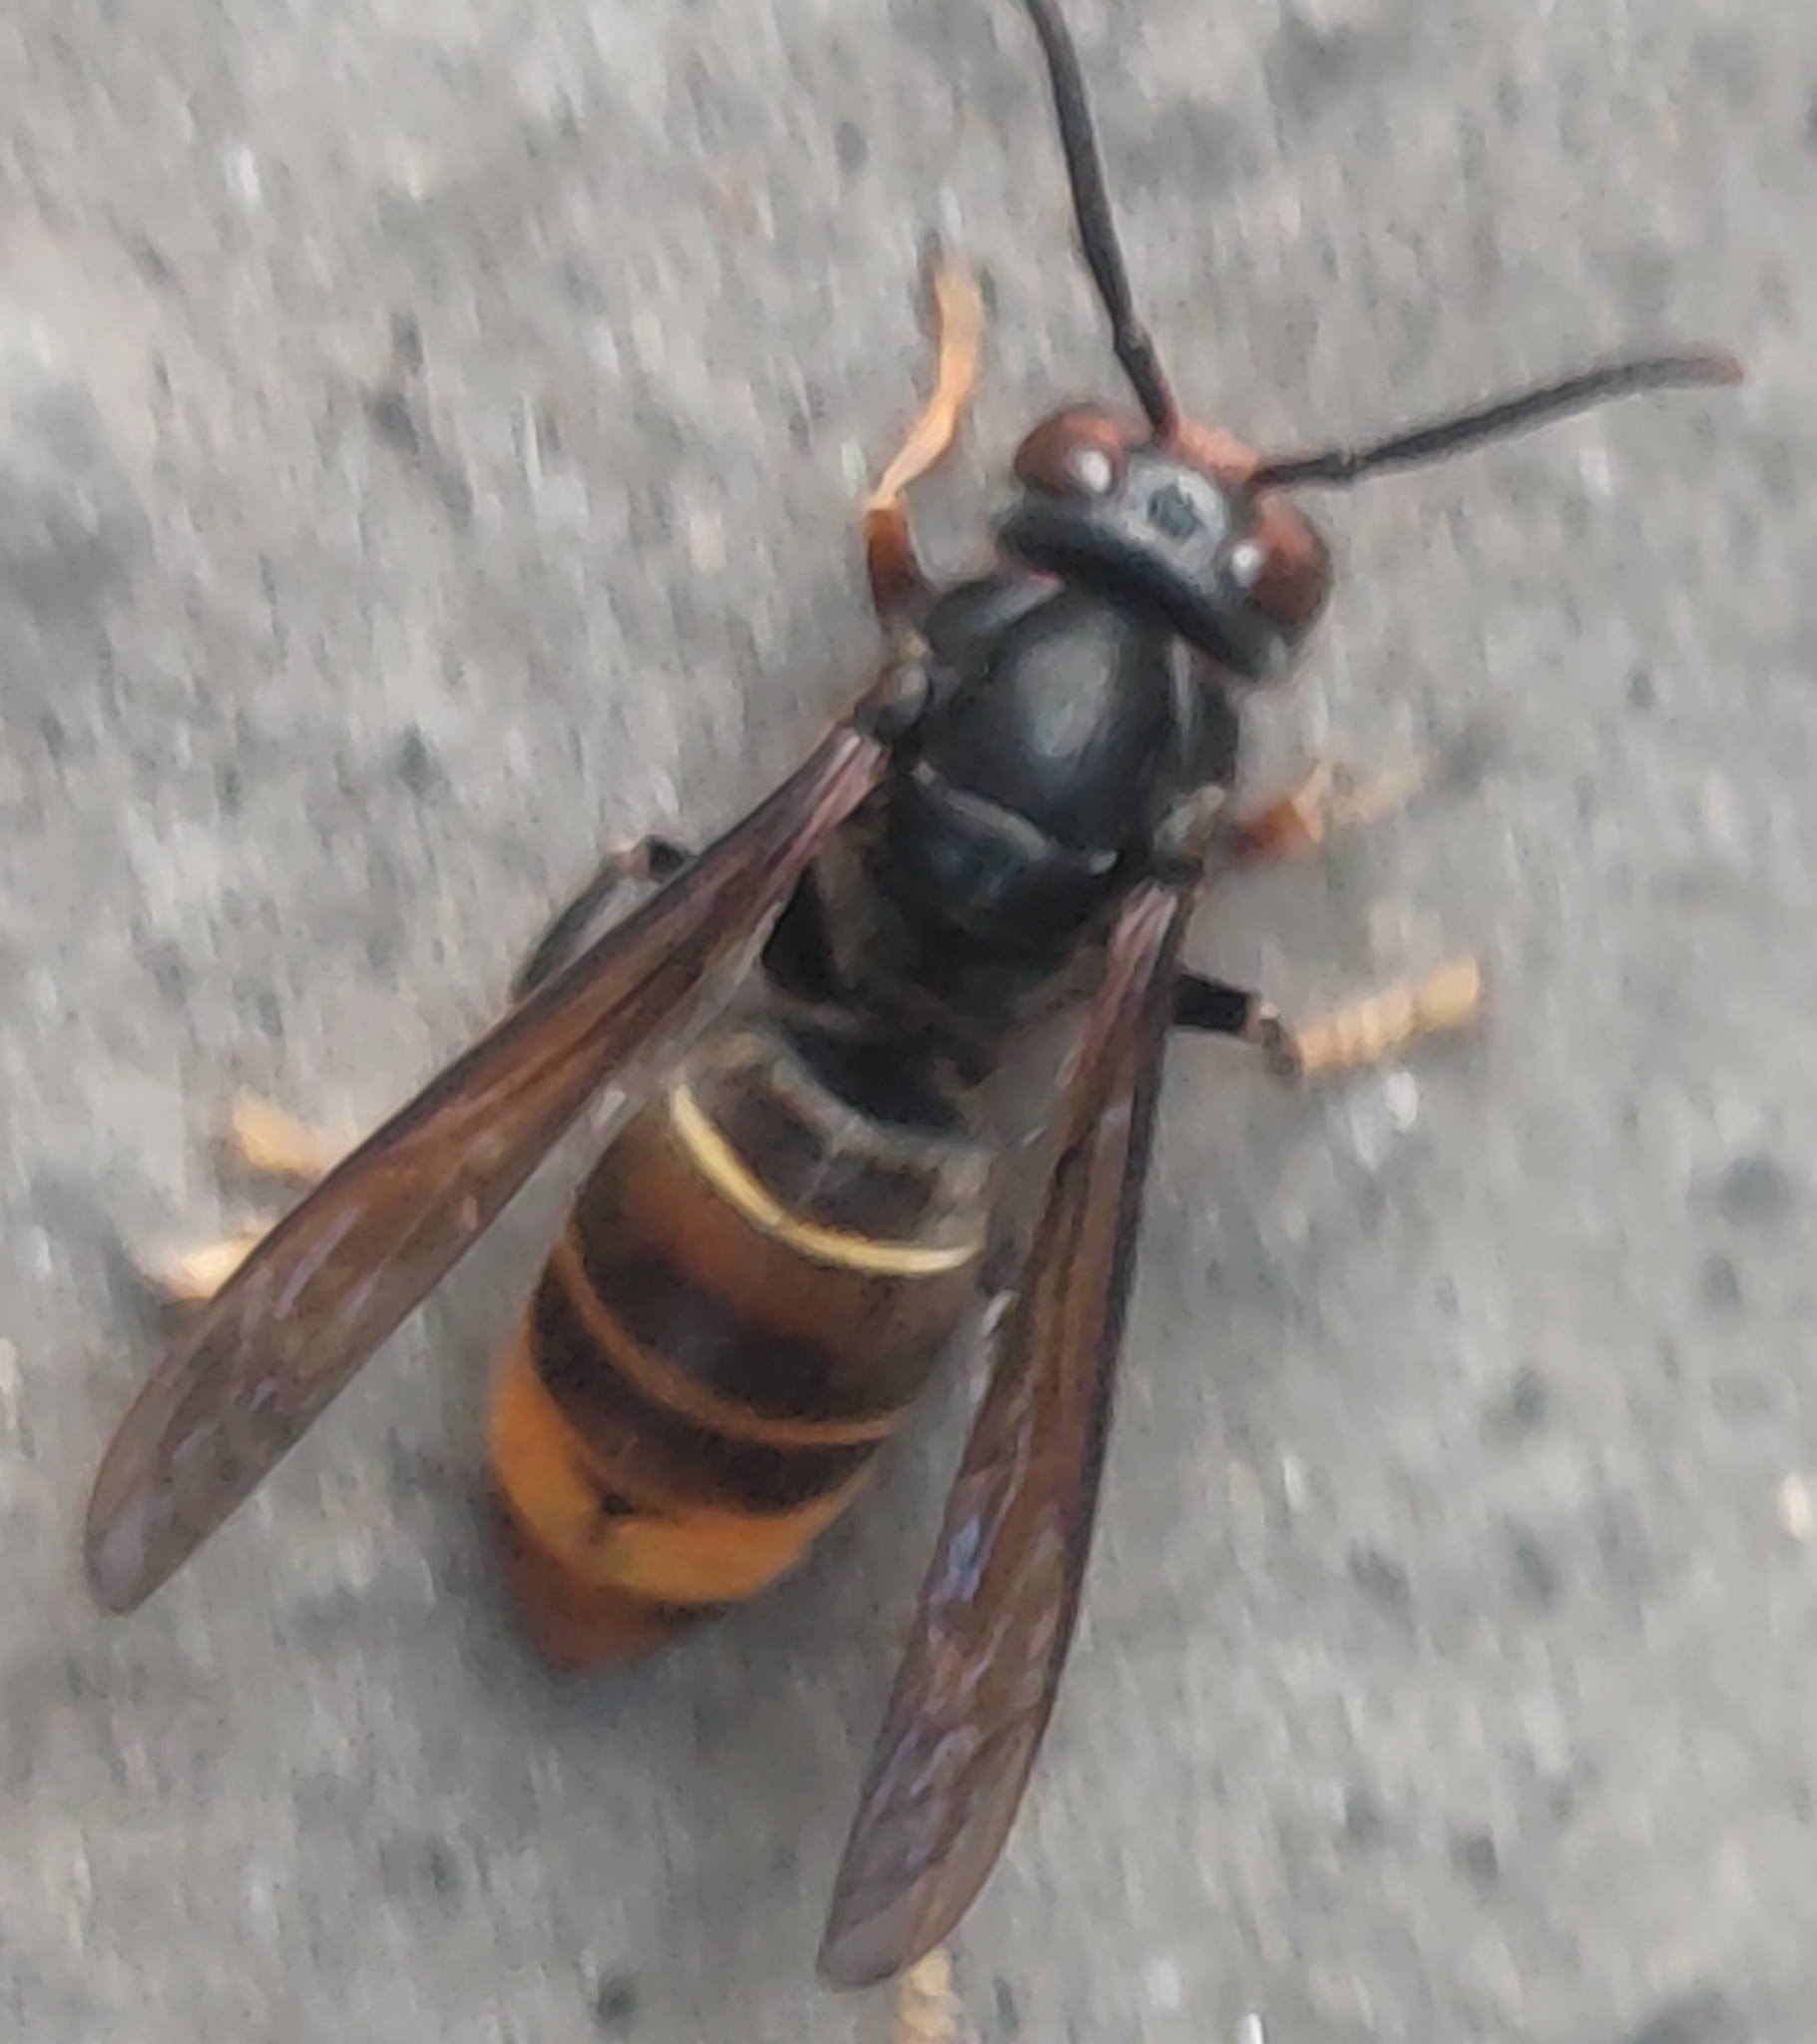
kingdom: Animalia
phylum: Arthropoda
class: Insecta
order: Hymenoptera
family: Vespidae
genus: Vespa
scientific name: Vespa velutina
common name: Asian hornet
